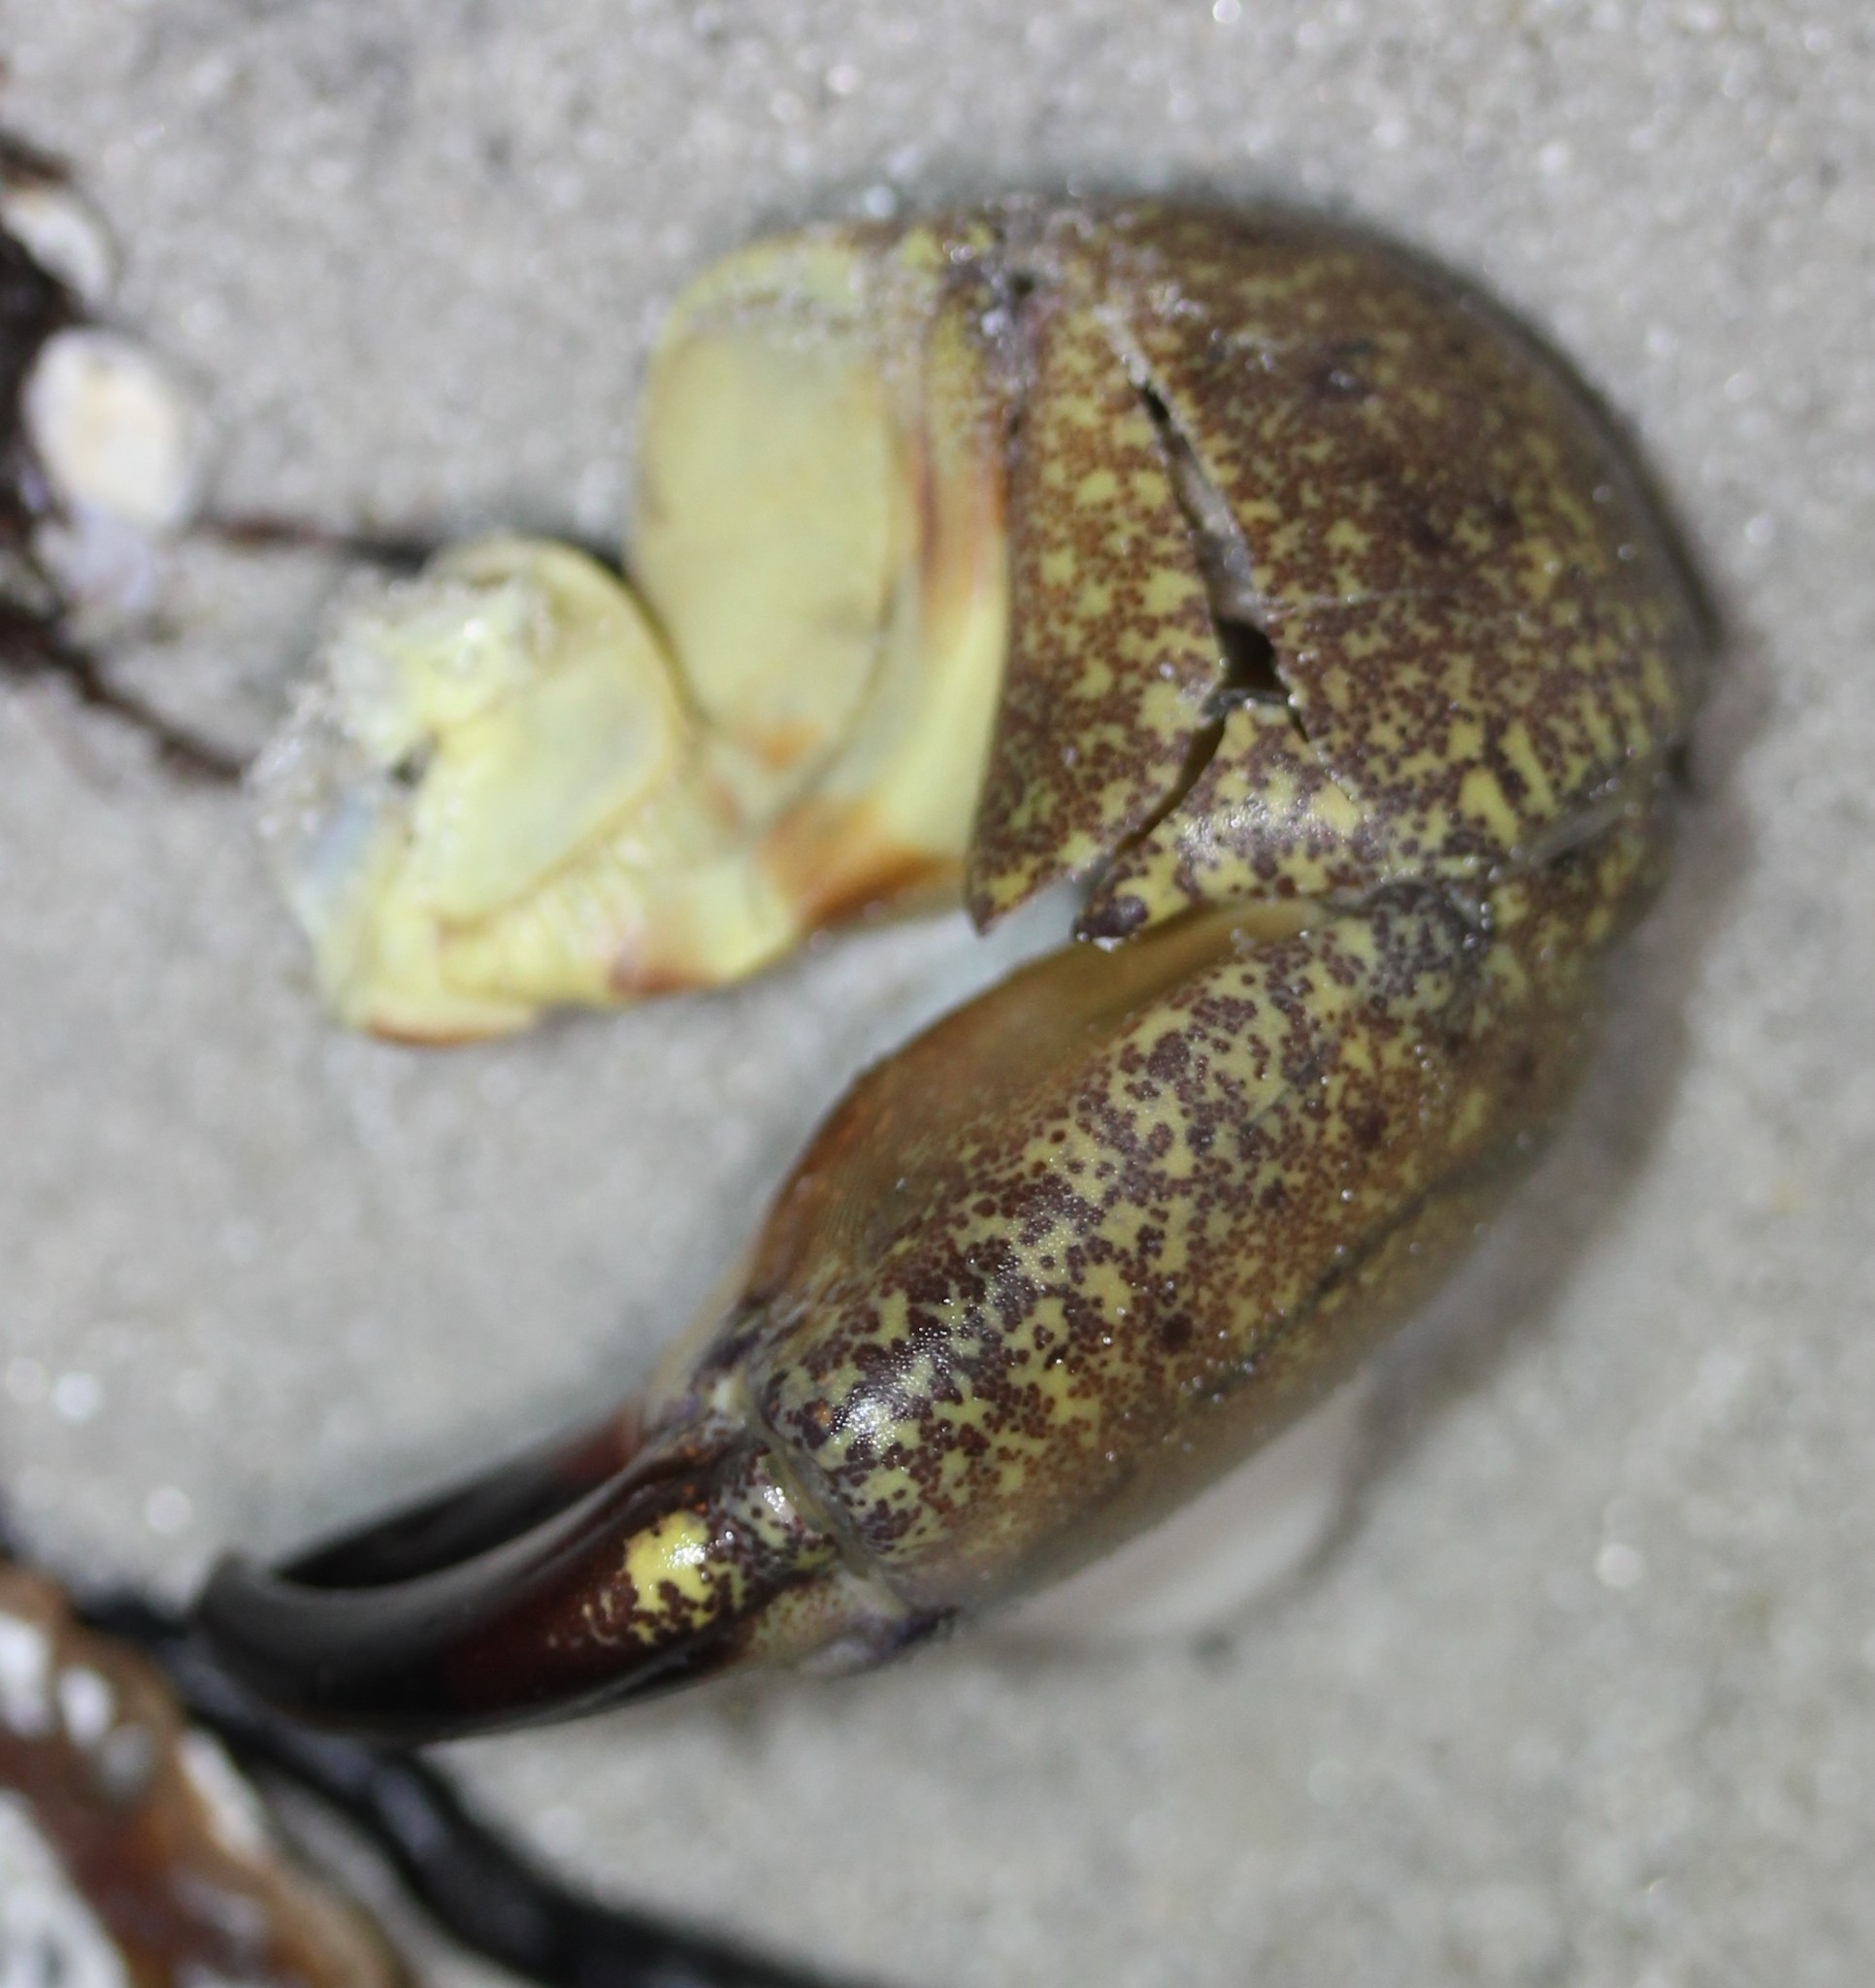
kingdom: Animalia
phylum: Arthropoda
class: Malacostraca
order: Decapoda
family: Menippidae
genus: Menippe
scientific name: Menippe mercenaria
